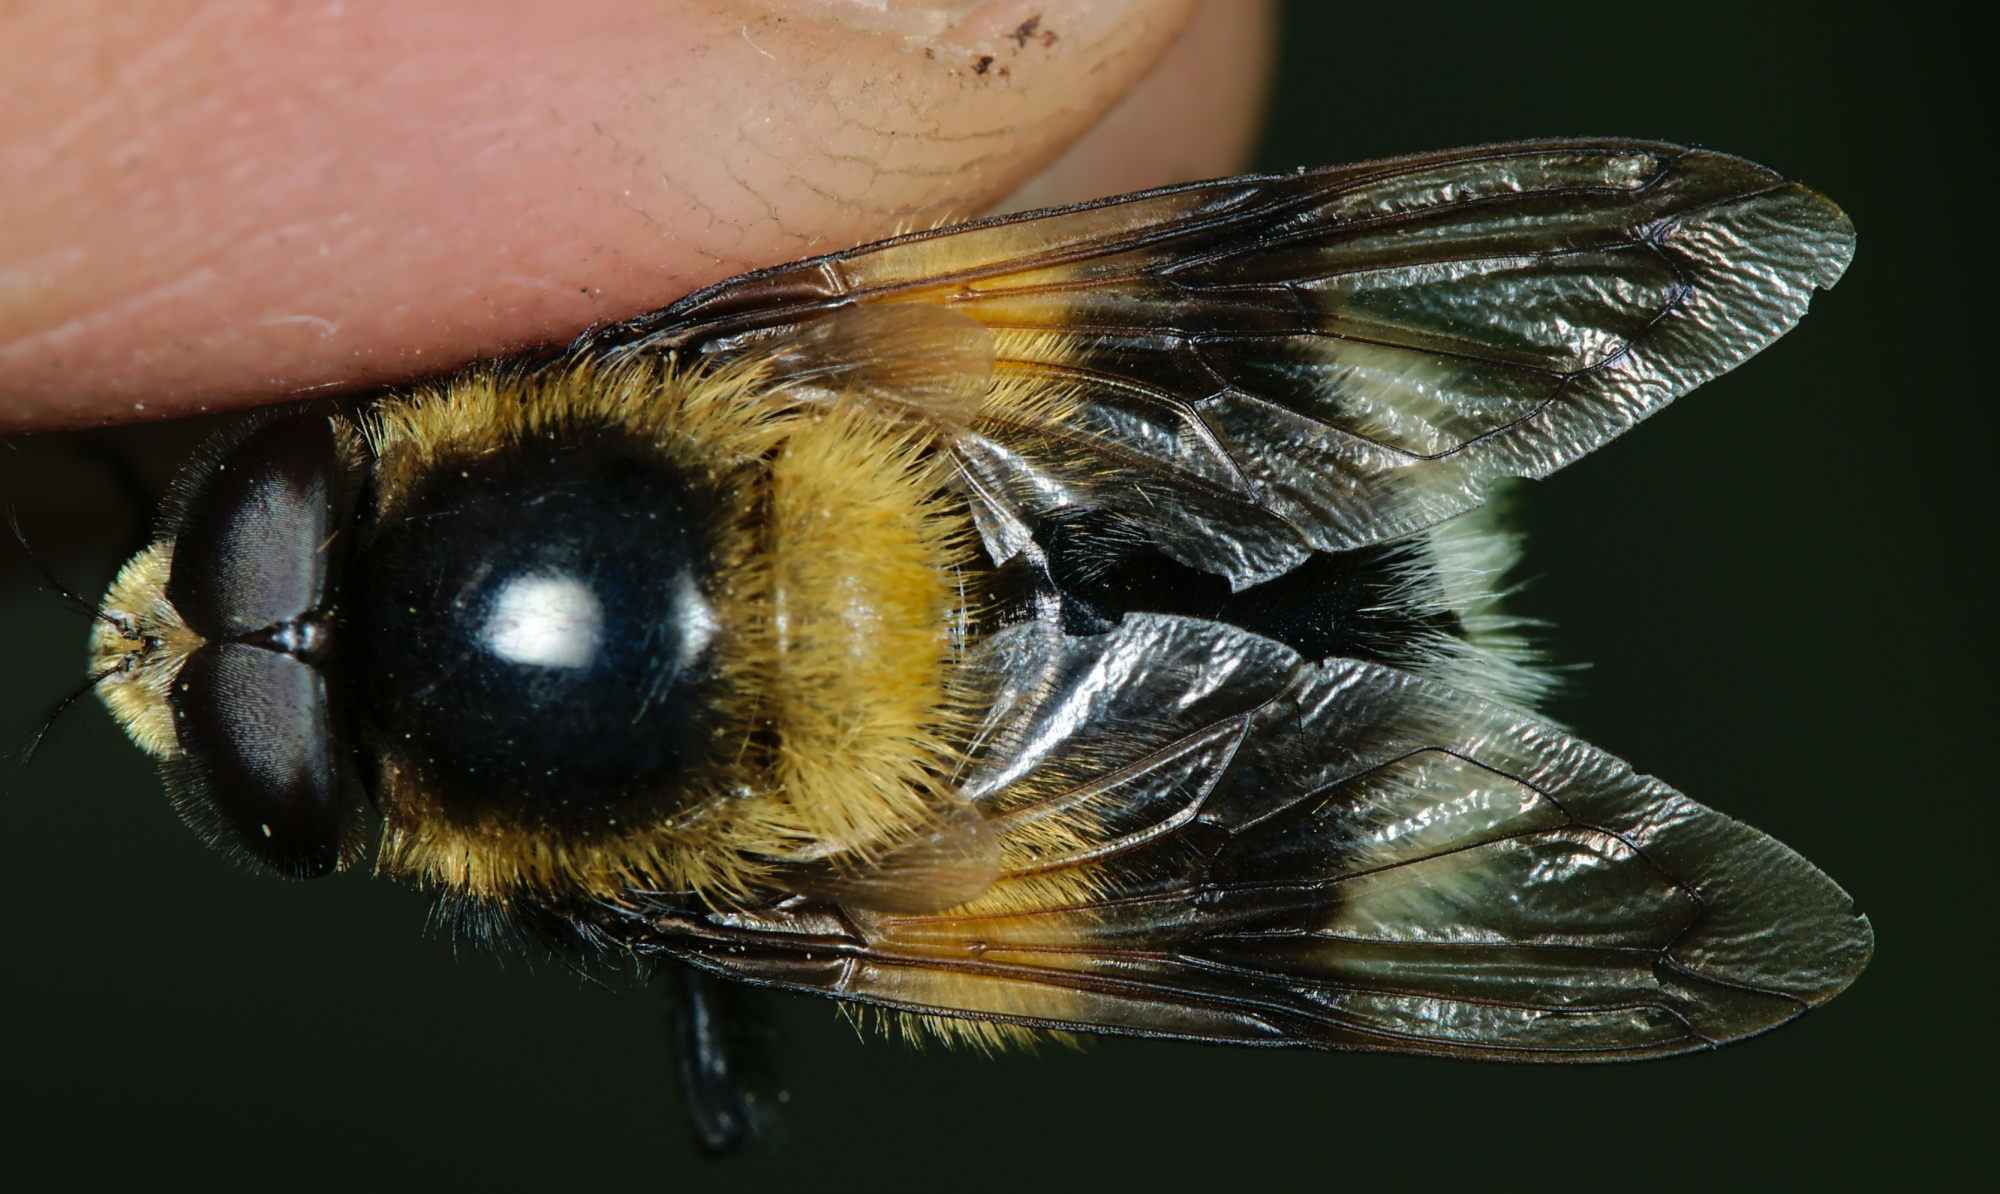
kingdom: Animalia
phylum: Arthropoda
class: Insecta
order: Diptera
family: Syrphidae
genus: Volucella
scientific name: Volucella bombylans
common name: Bumble bee hover fly
